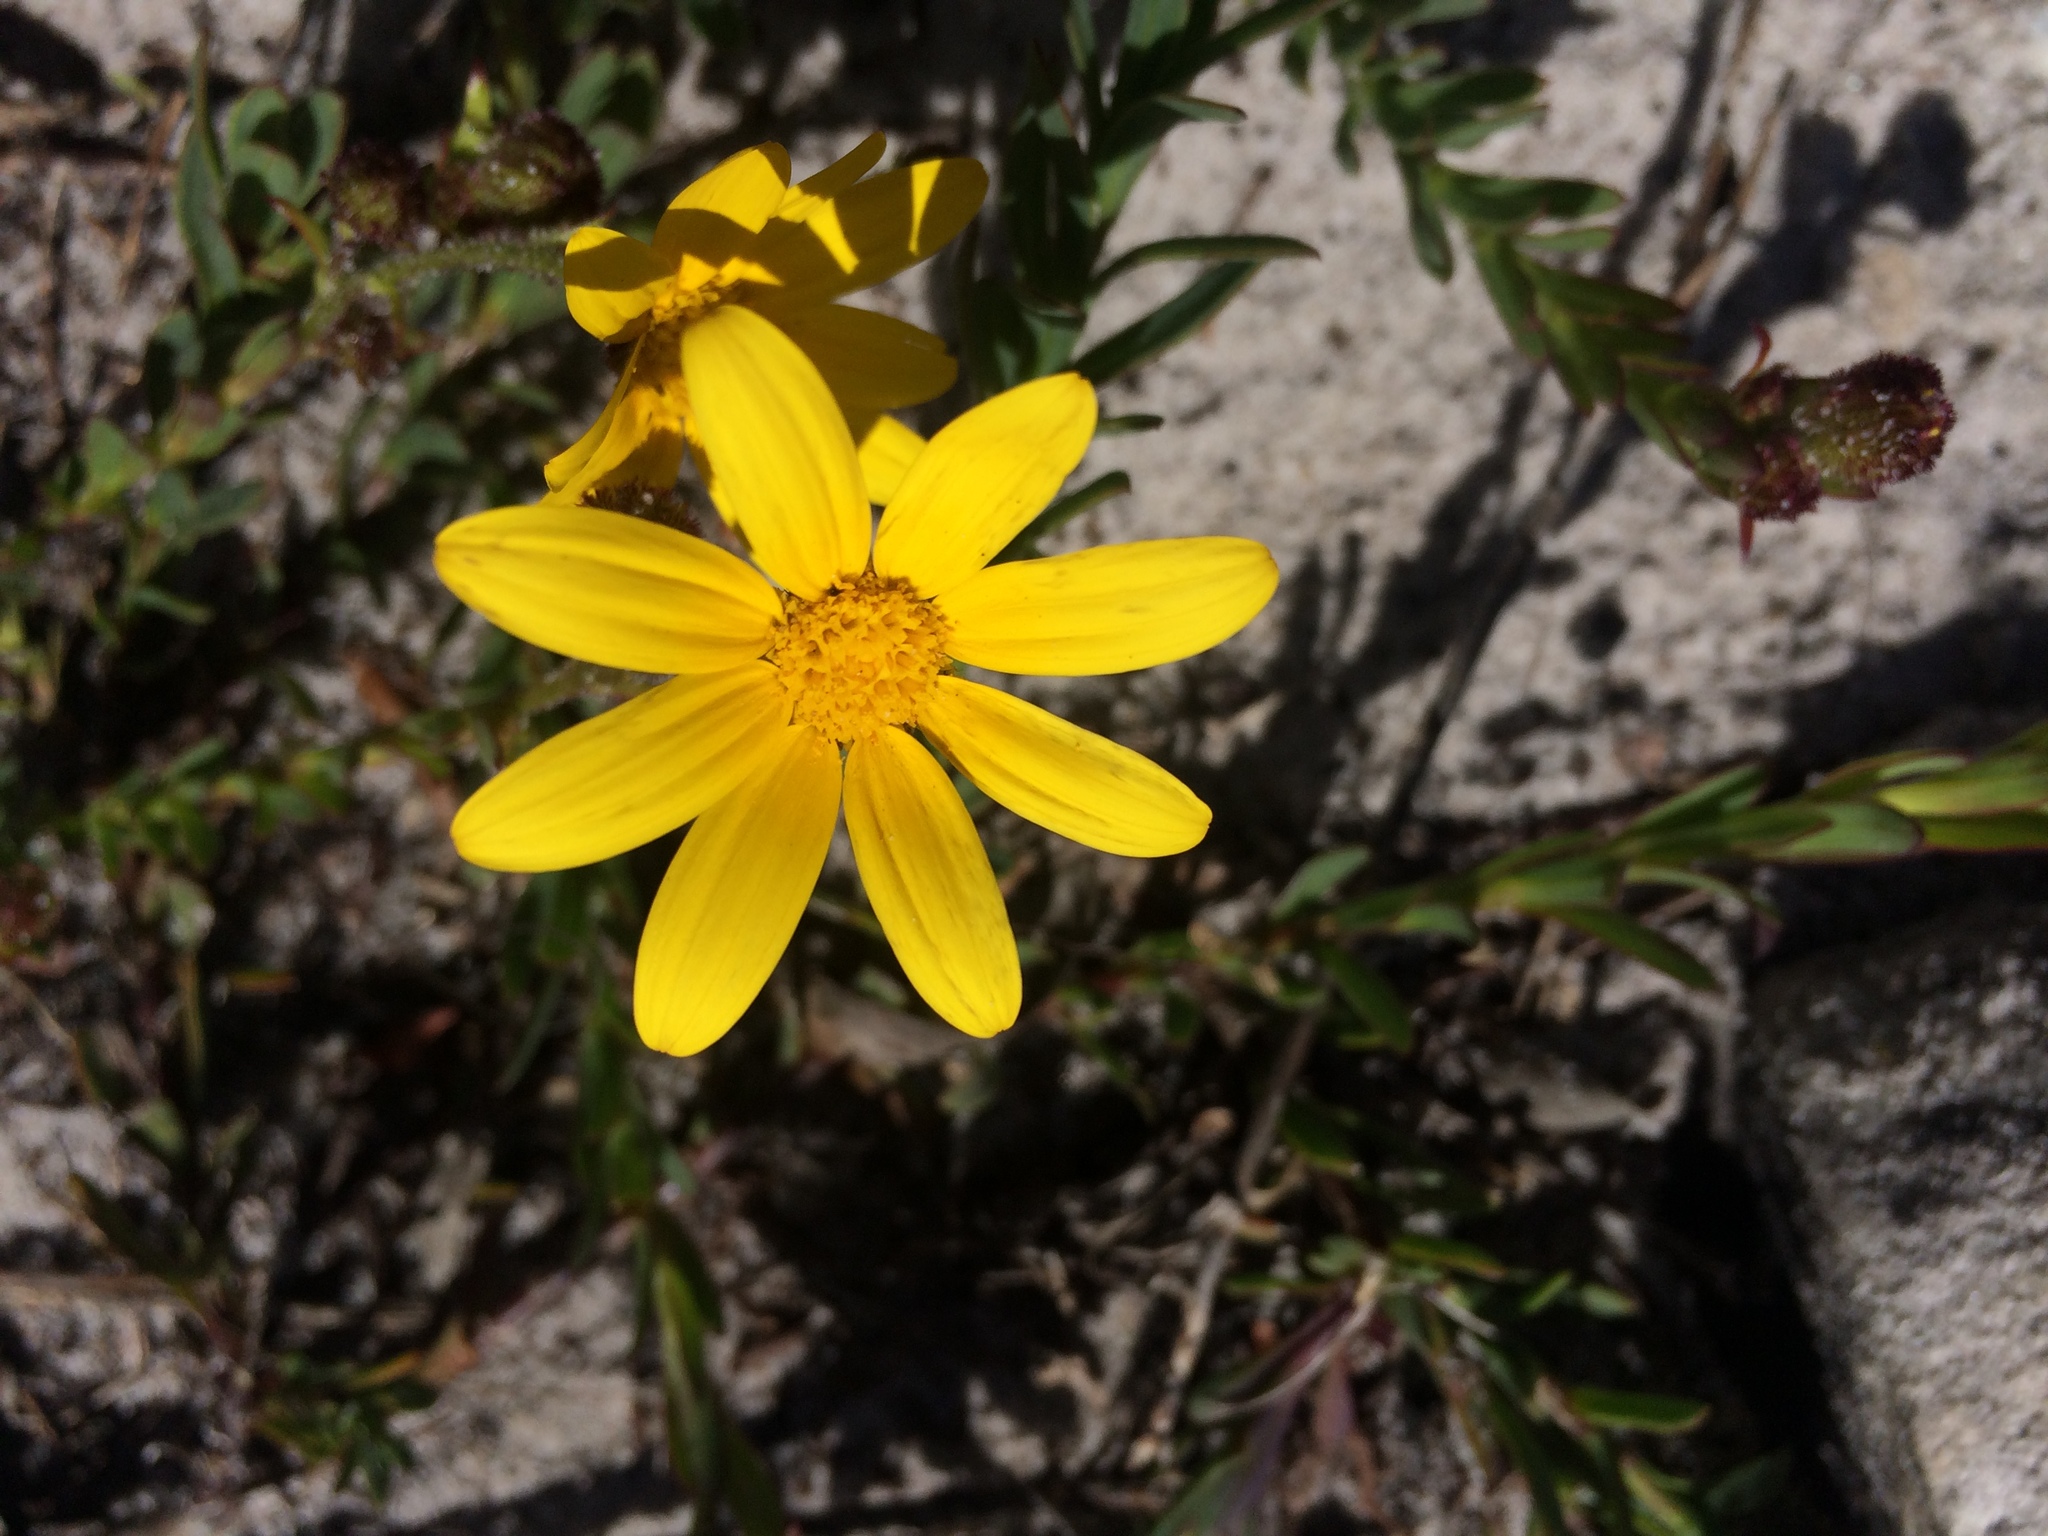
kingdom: Plantae
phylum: Tracheophyta
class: Magnoliopsida
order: Asterales
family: Asteraceae
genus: Osteospermum
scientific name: Osteospermum polygaloides
